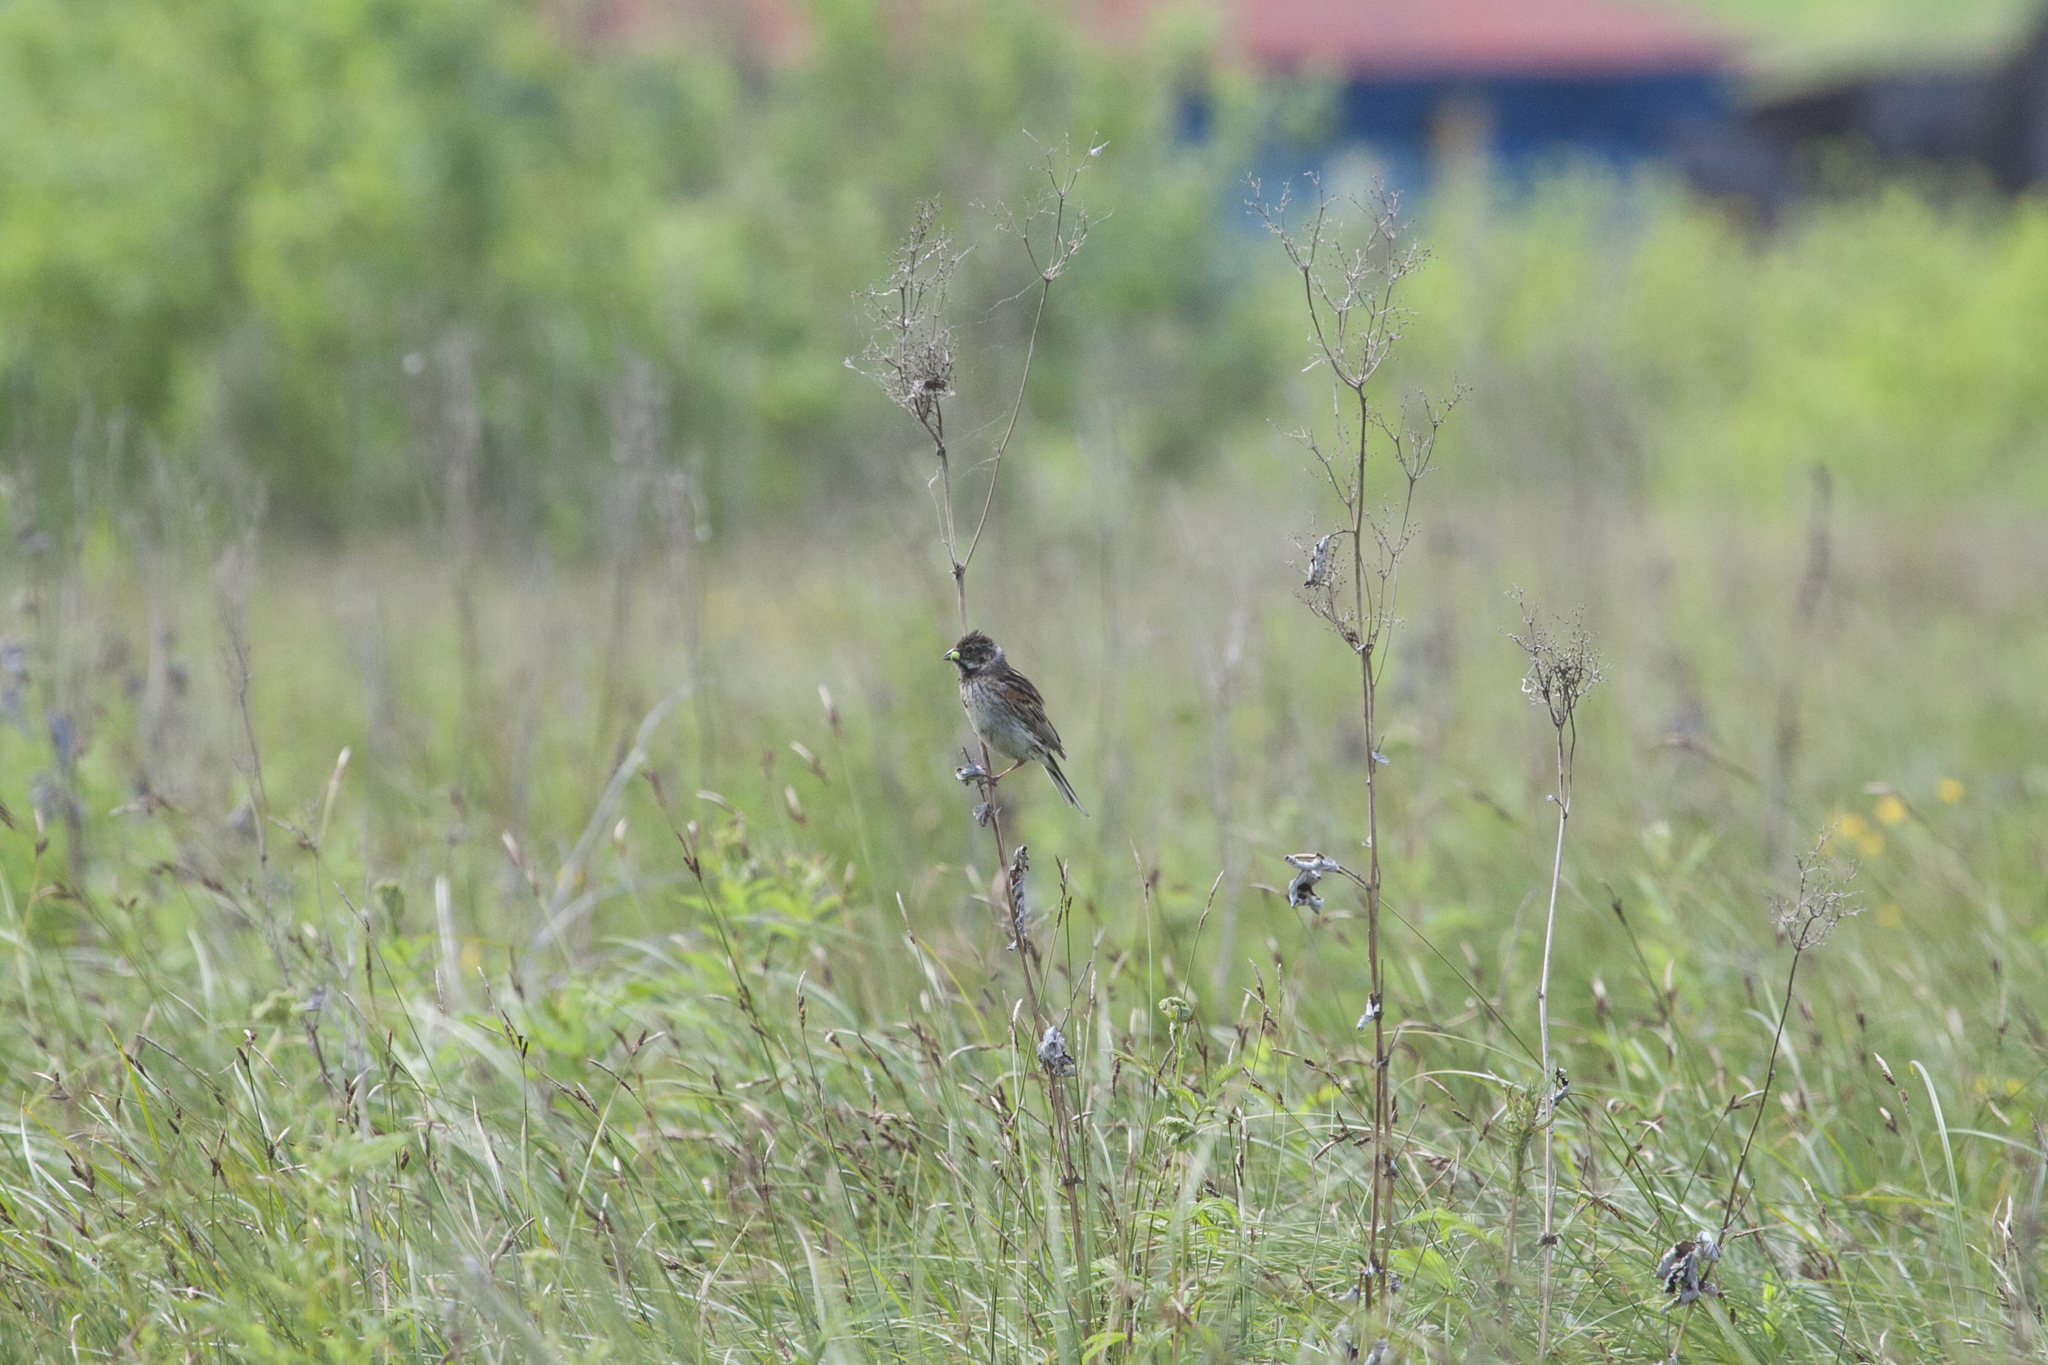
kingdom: Animalia
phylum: Chordata
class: Aves
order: Passeriformes
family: Emberizidae
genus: Emberiza
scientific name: Emberiza schoeniclus
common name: Reed bunting
